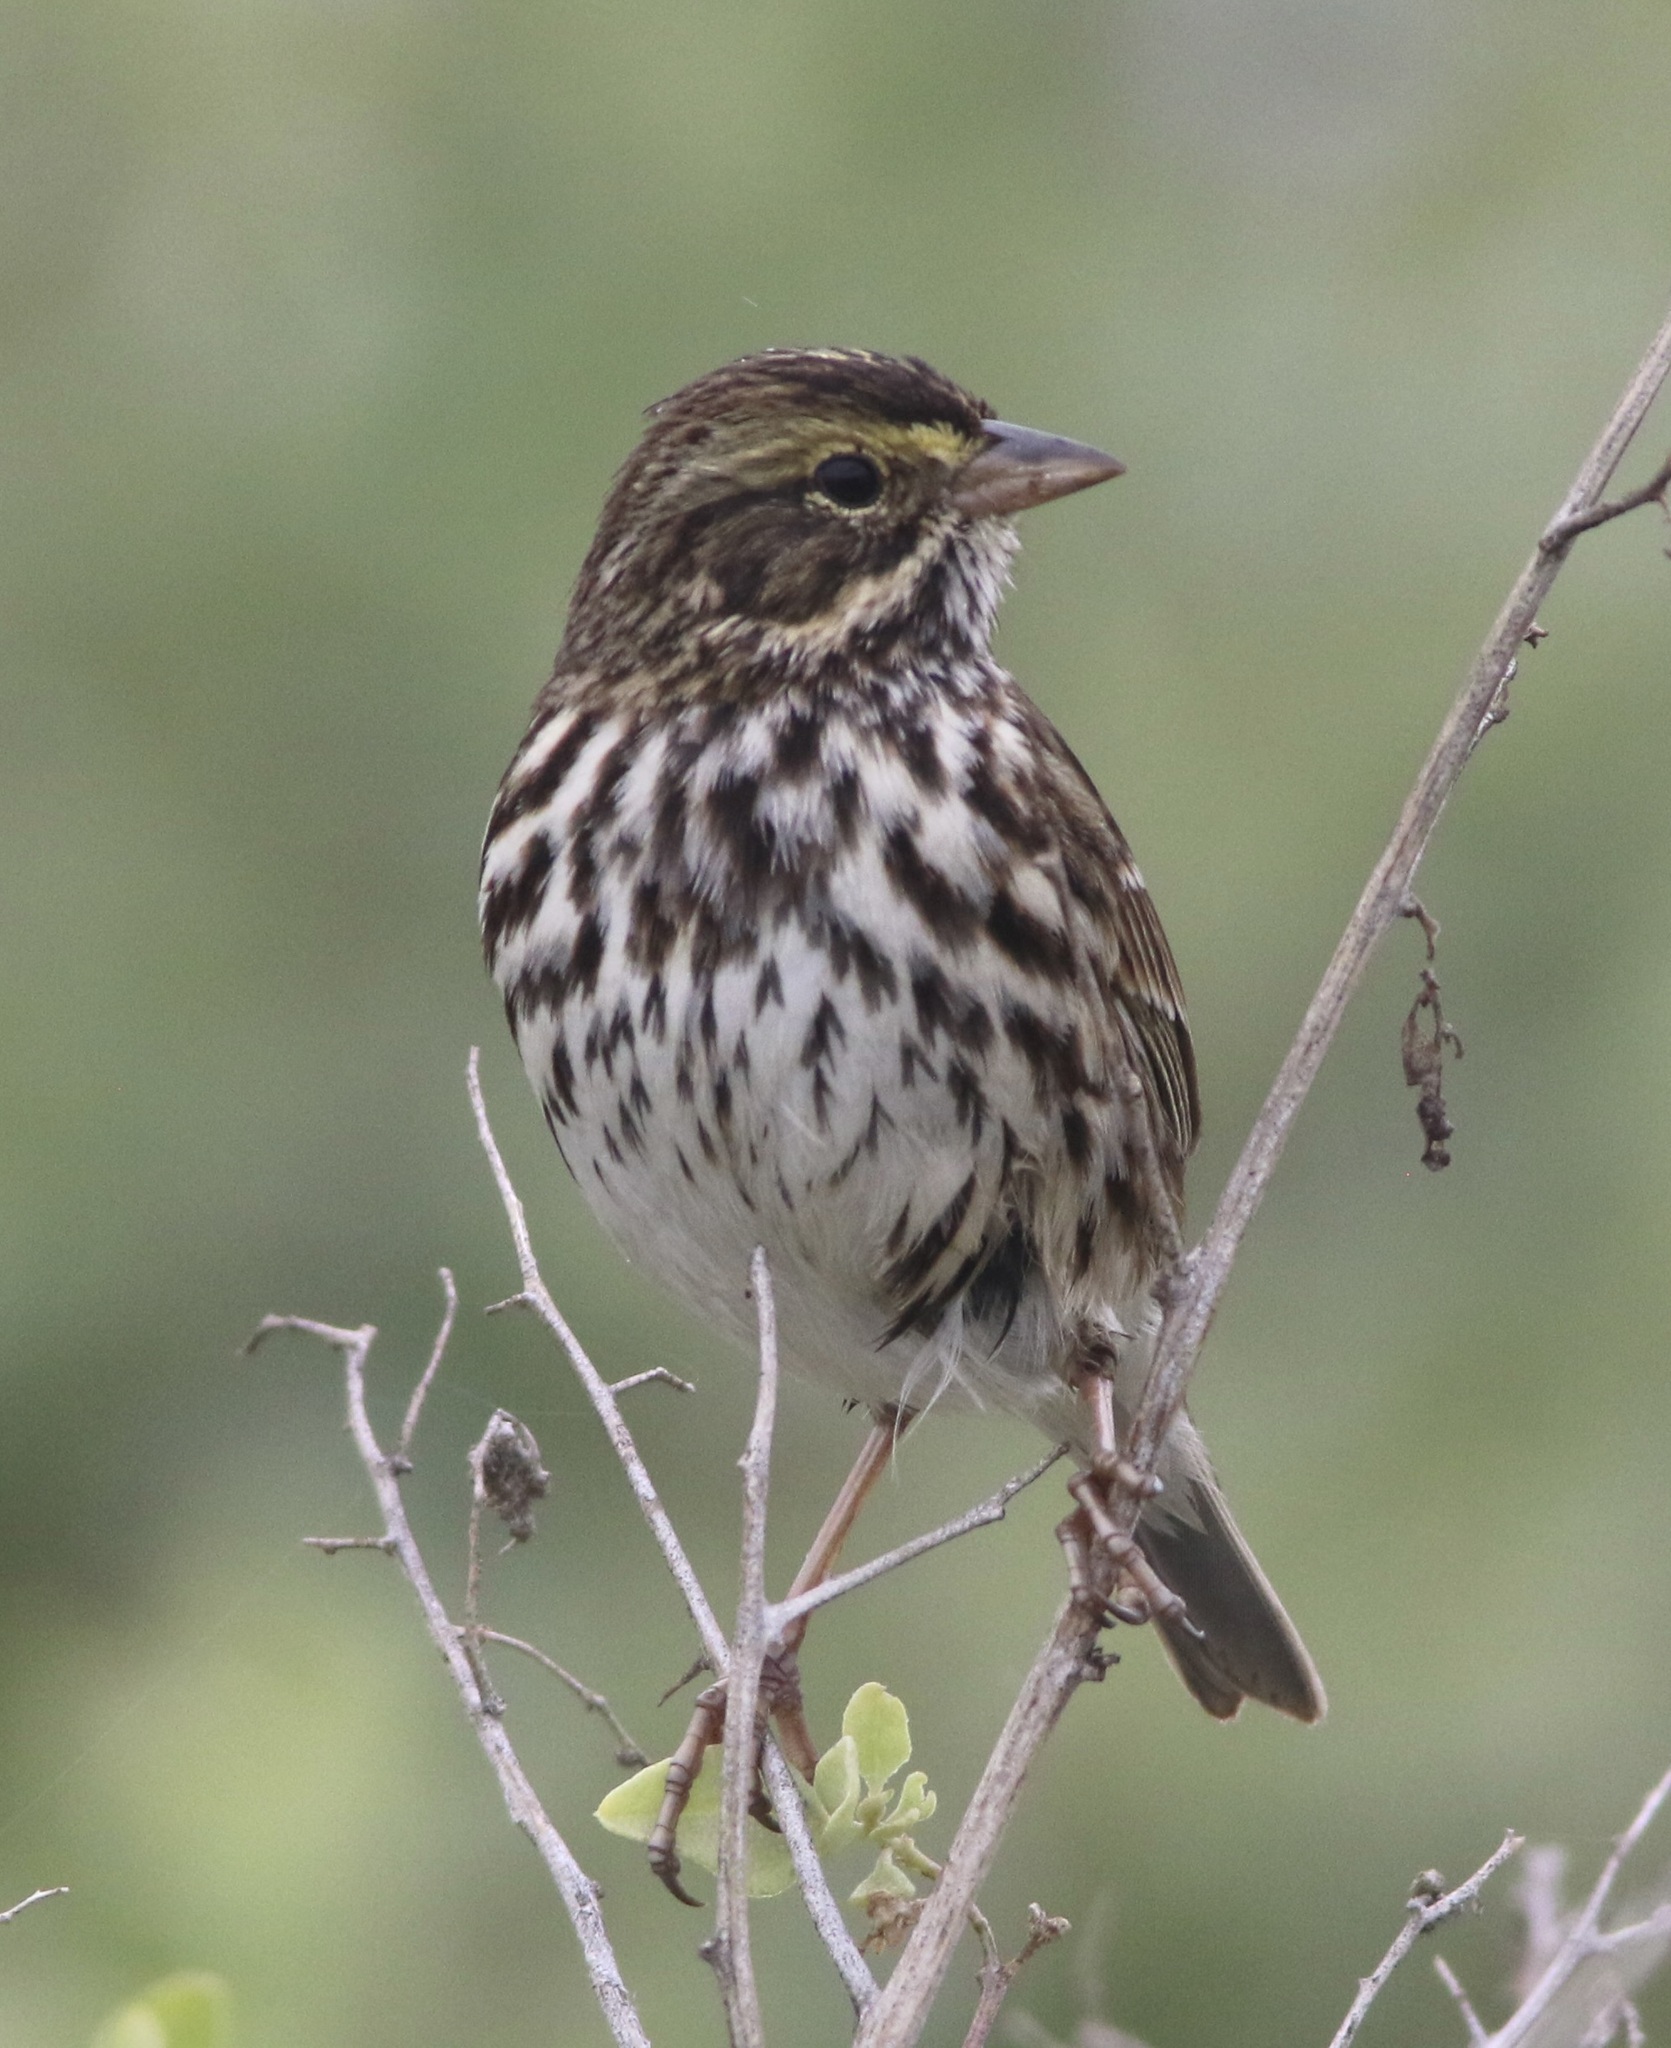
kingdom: Animalia
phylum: Chordata
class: Aves
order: Passeriformes
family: Passerellidae
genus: Passerculus
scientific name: Passerculus sandwichensis
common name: Savannah sparrow
